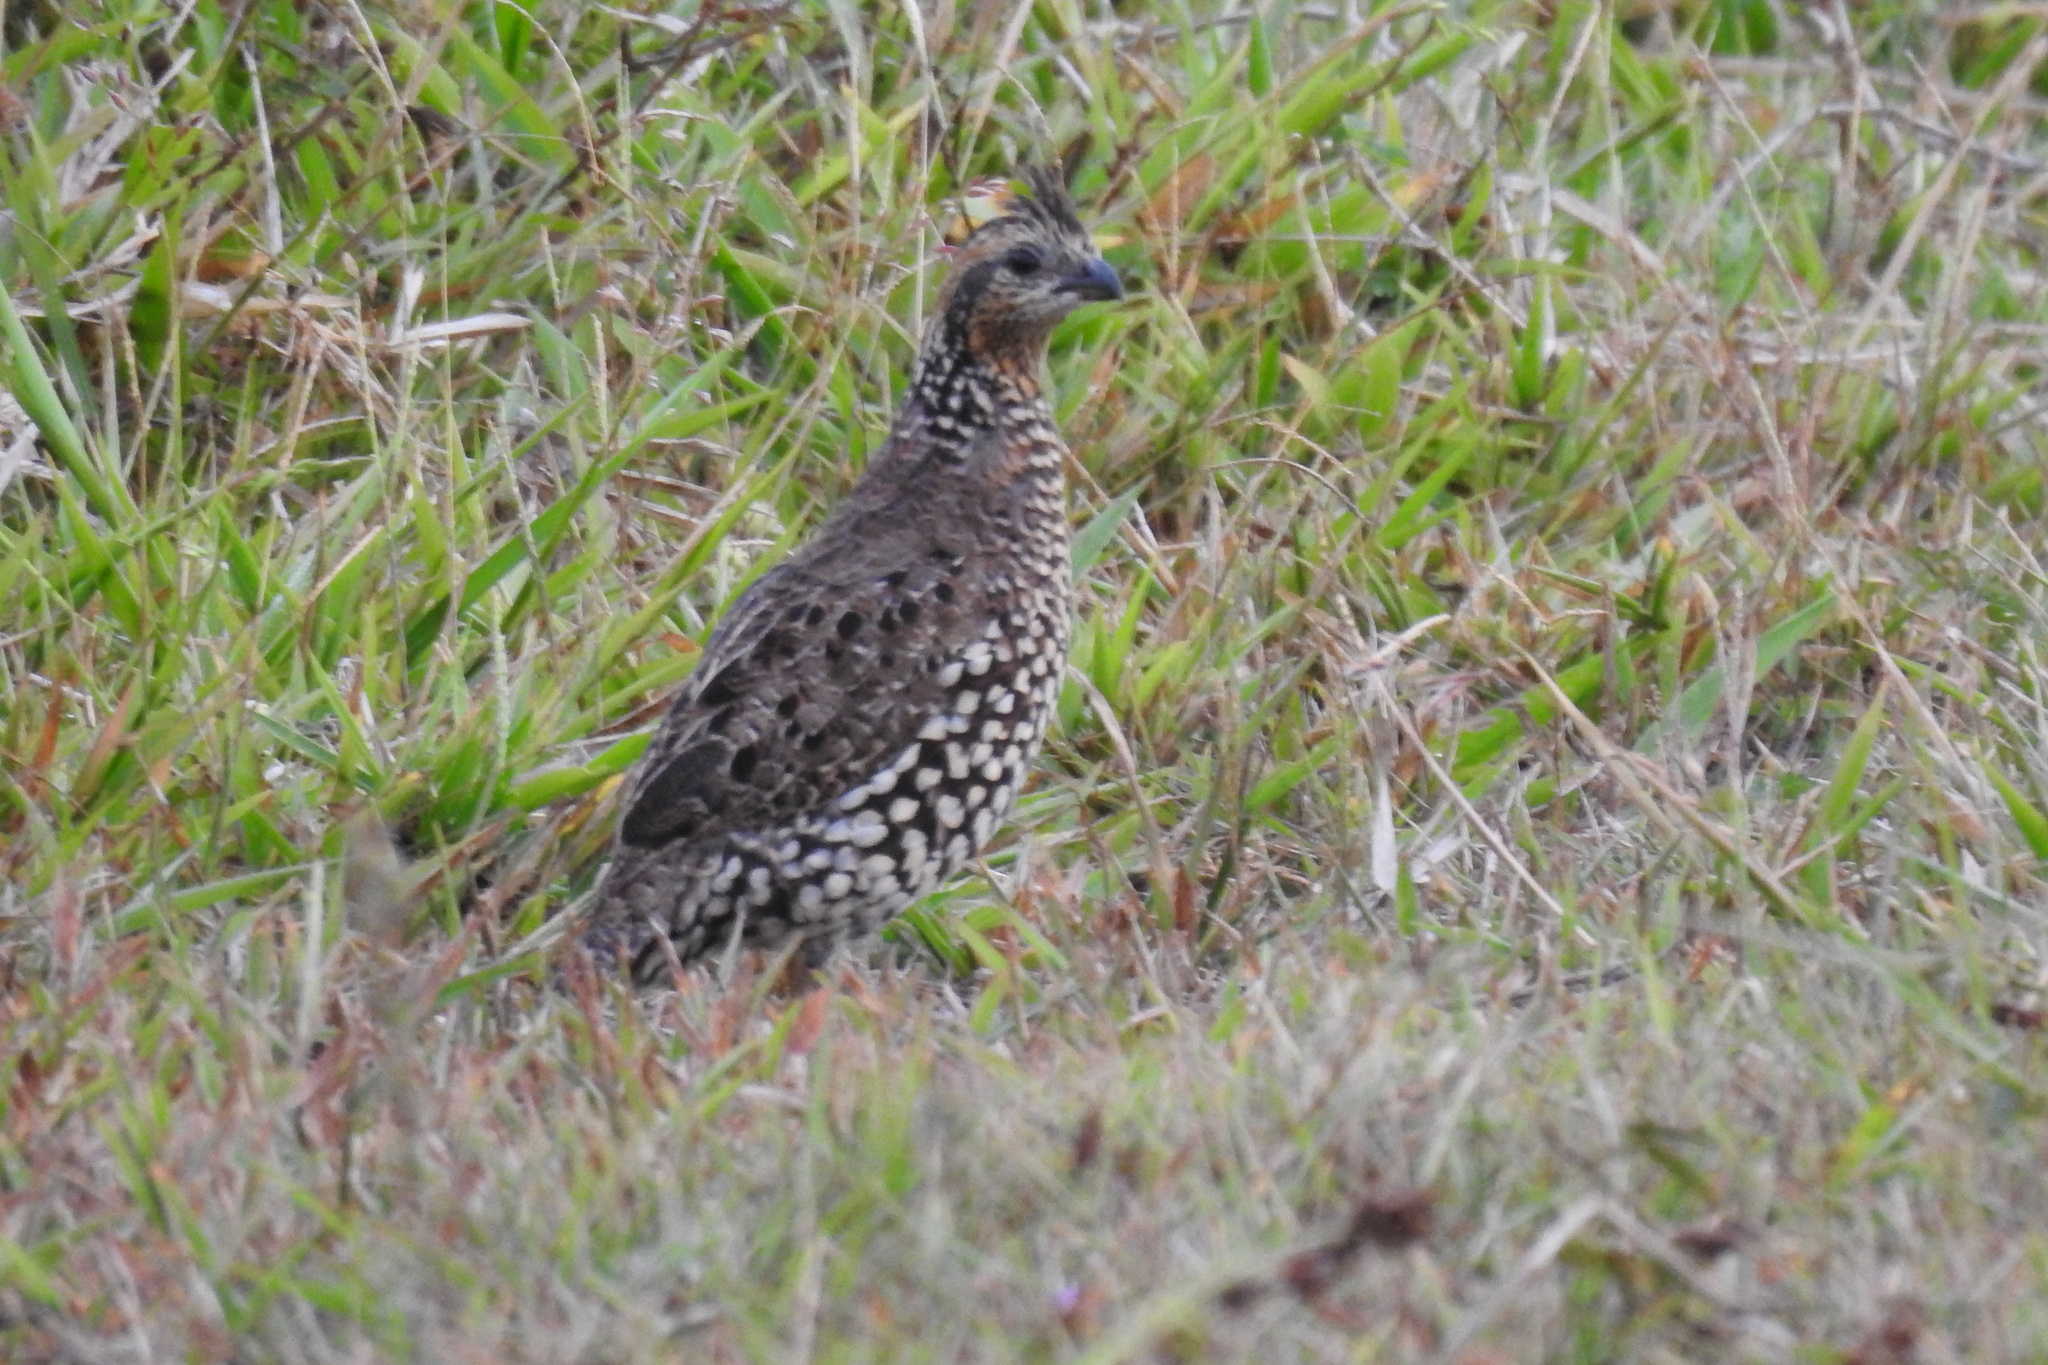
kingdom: Animalia
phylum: Chordata
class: Aves
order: Galliformes
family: Odontophoridae
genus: Colinus
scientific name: Colinus cristatus
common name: Crested bobwhite
